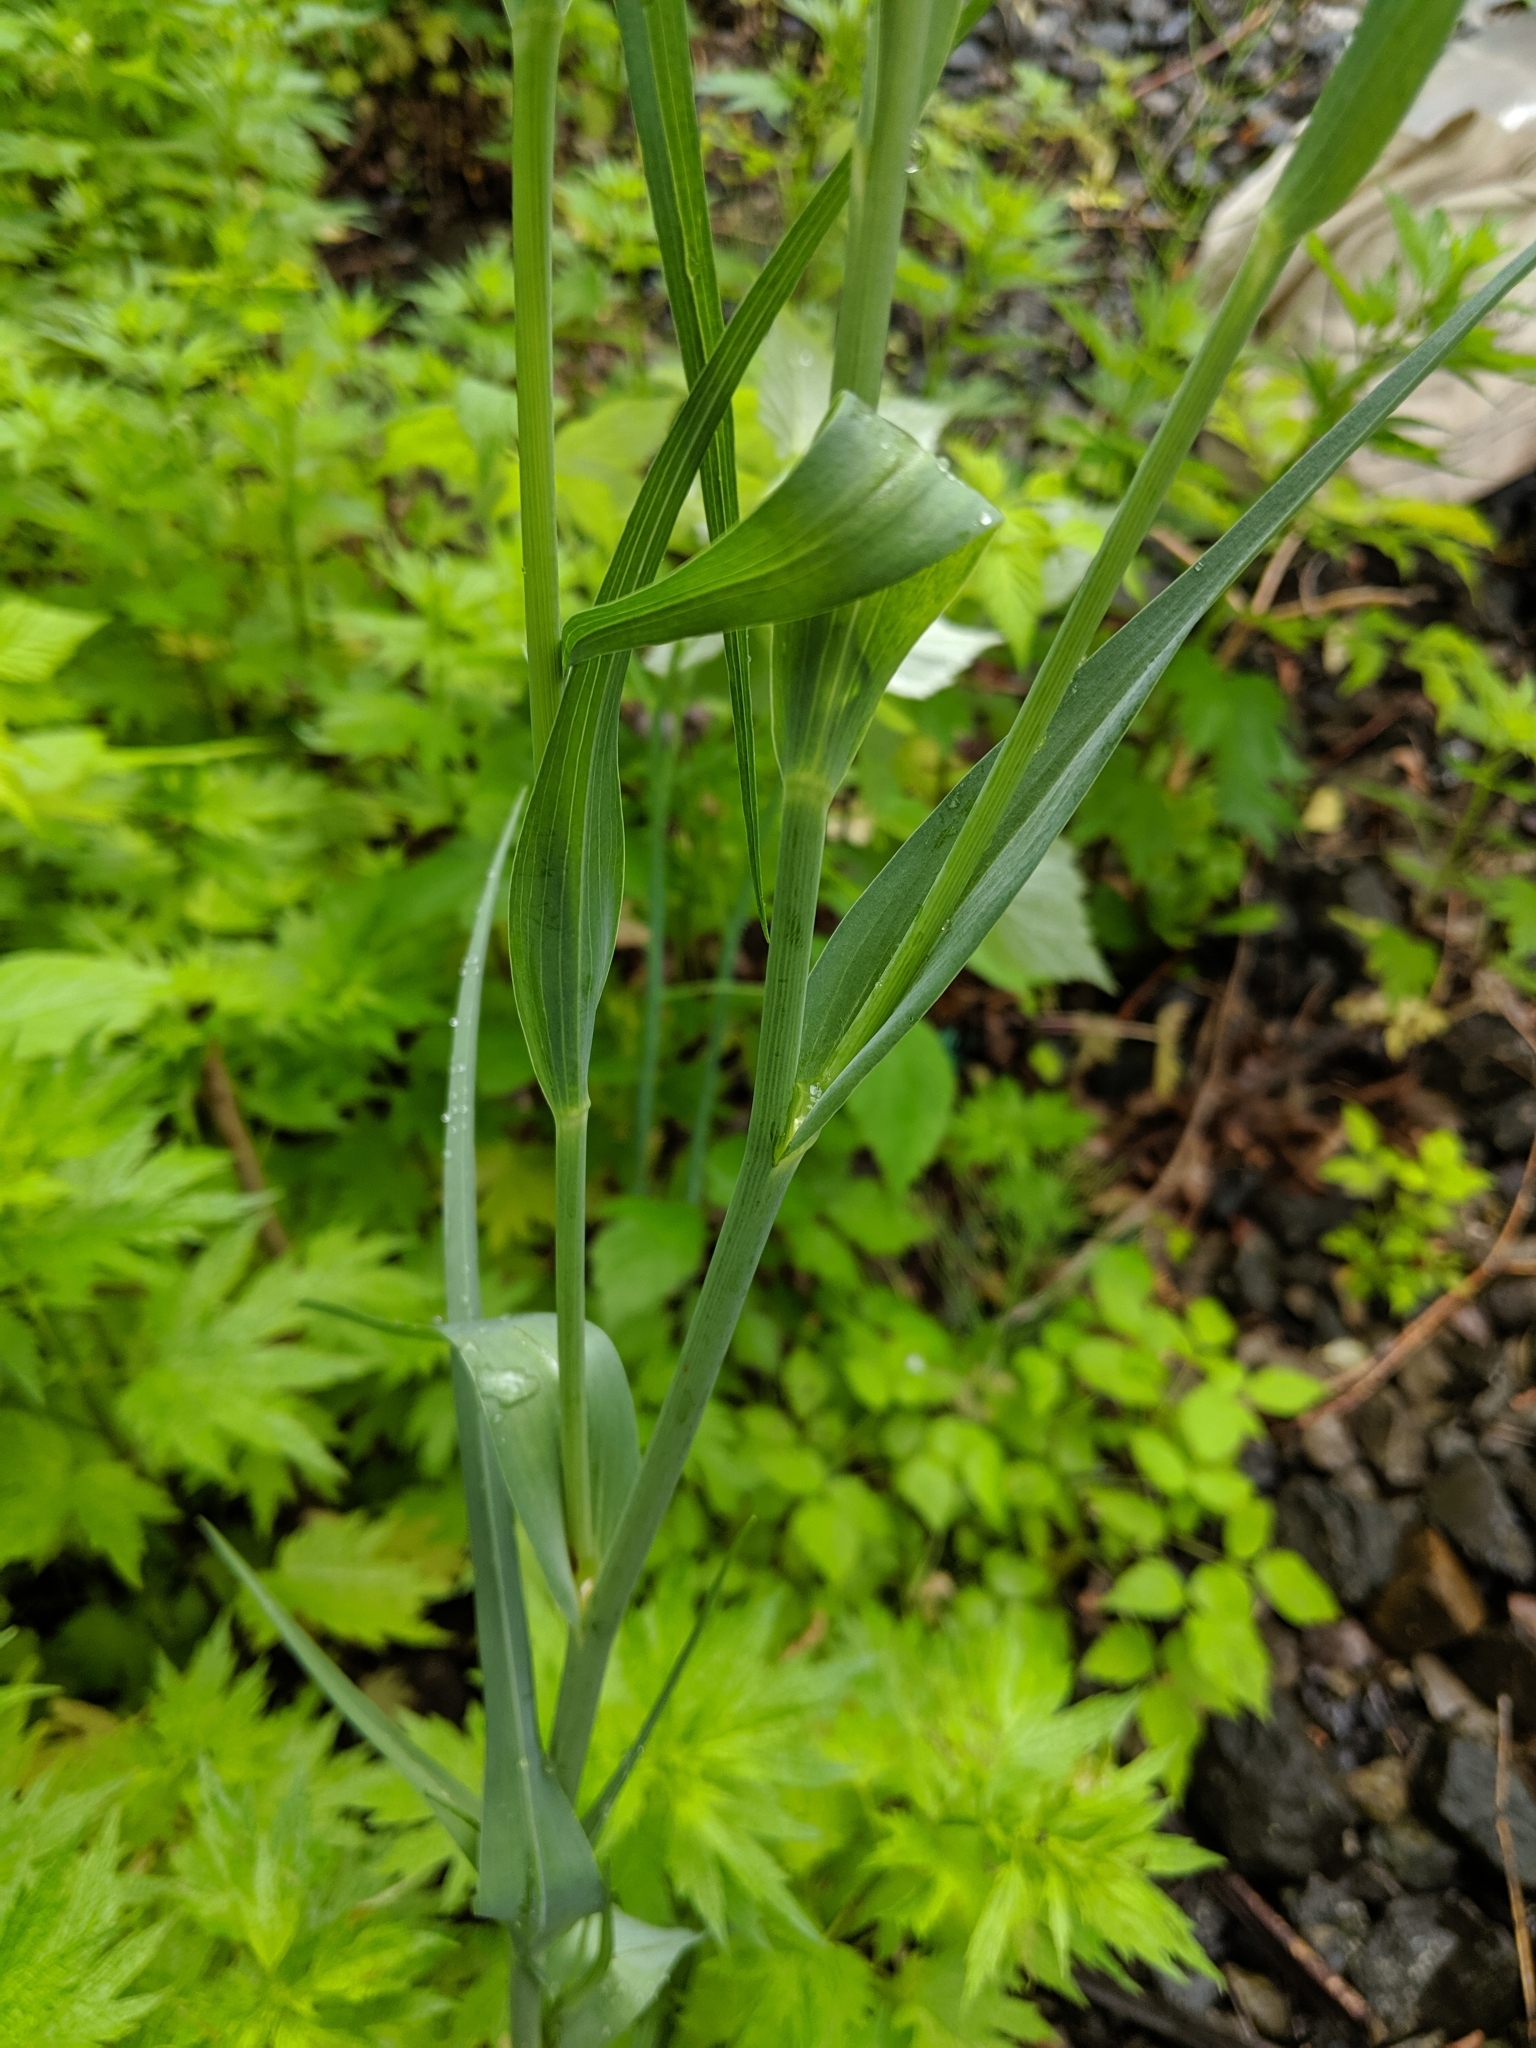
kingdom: Plantae
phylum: Tracheophyta
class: Magnoliopsida
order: Asterales
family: Asteraceae
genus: Tragopogon
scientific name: Tragopogon porrifolius
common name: Salsify
